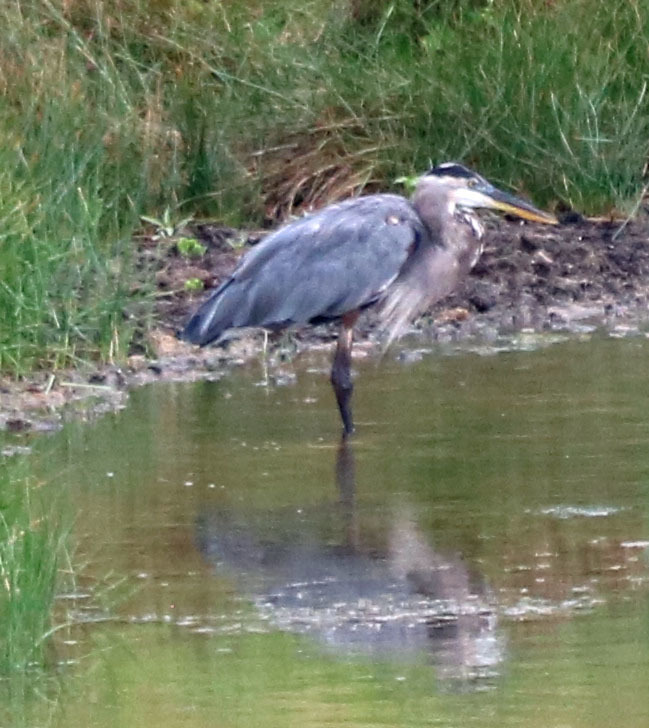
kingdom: Animalia
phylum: Chordata
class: Aves
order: Pelecaniformes
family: Ardeidae
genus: Ardea
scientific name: Ardea herodias
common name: Great blue heron
